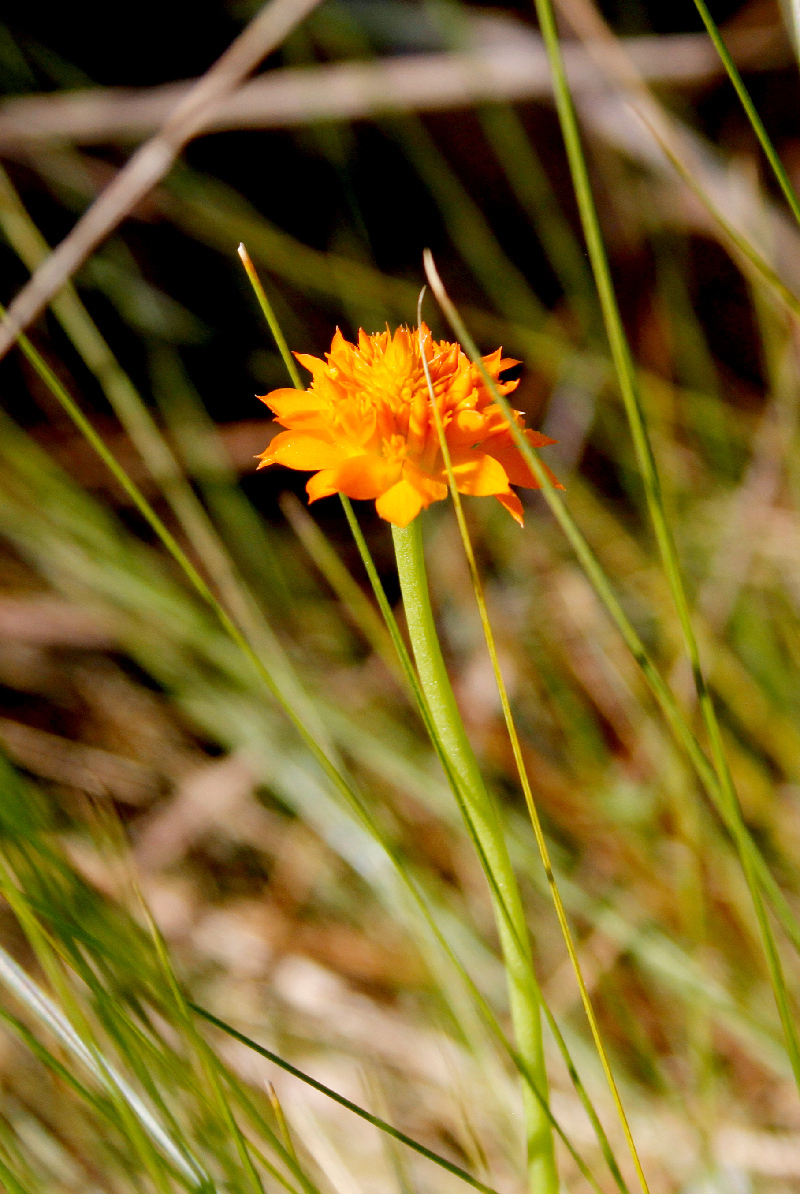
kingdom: Plantae
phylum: Tracheophyta
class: Magnoliopsida
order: Fabales
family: Polygalaceae
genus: Polygala
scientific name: Polygala lutea
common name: Orange milkwort
